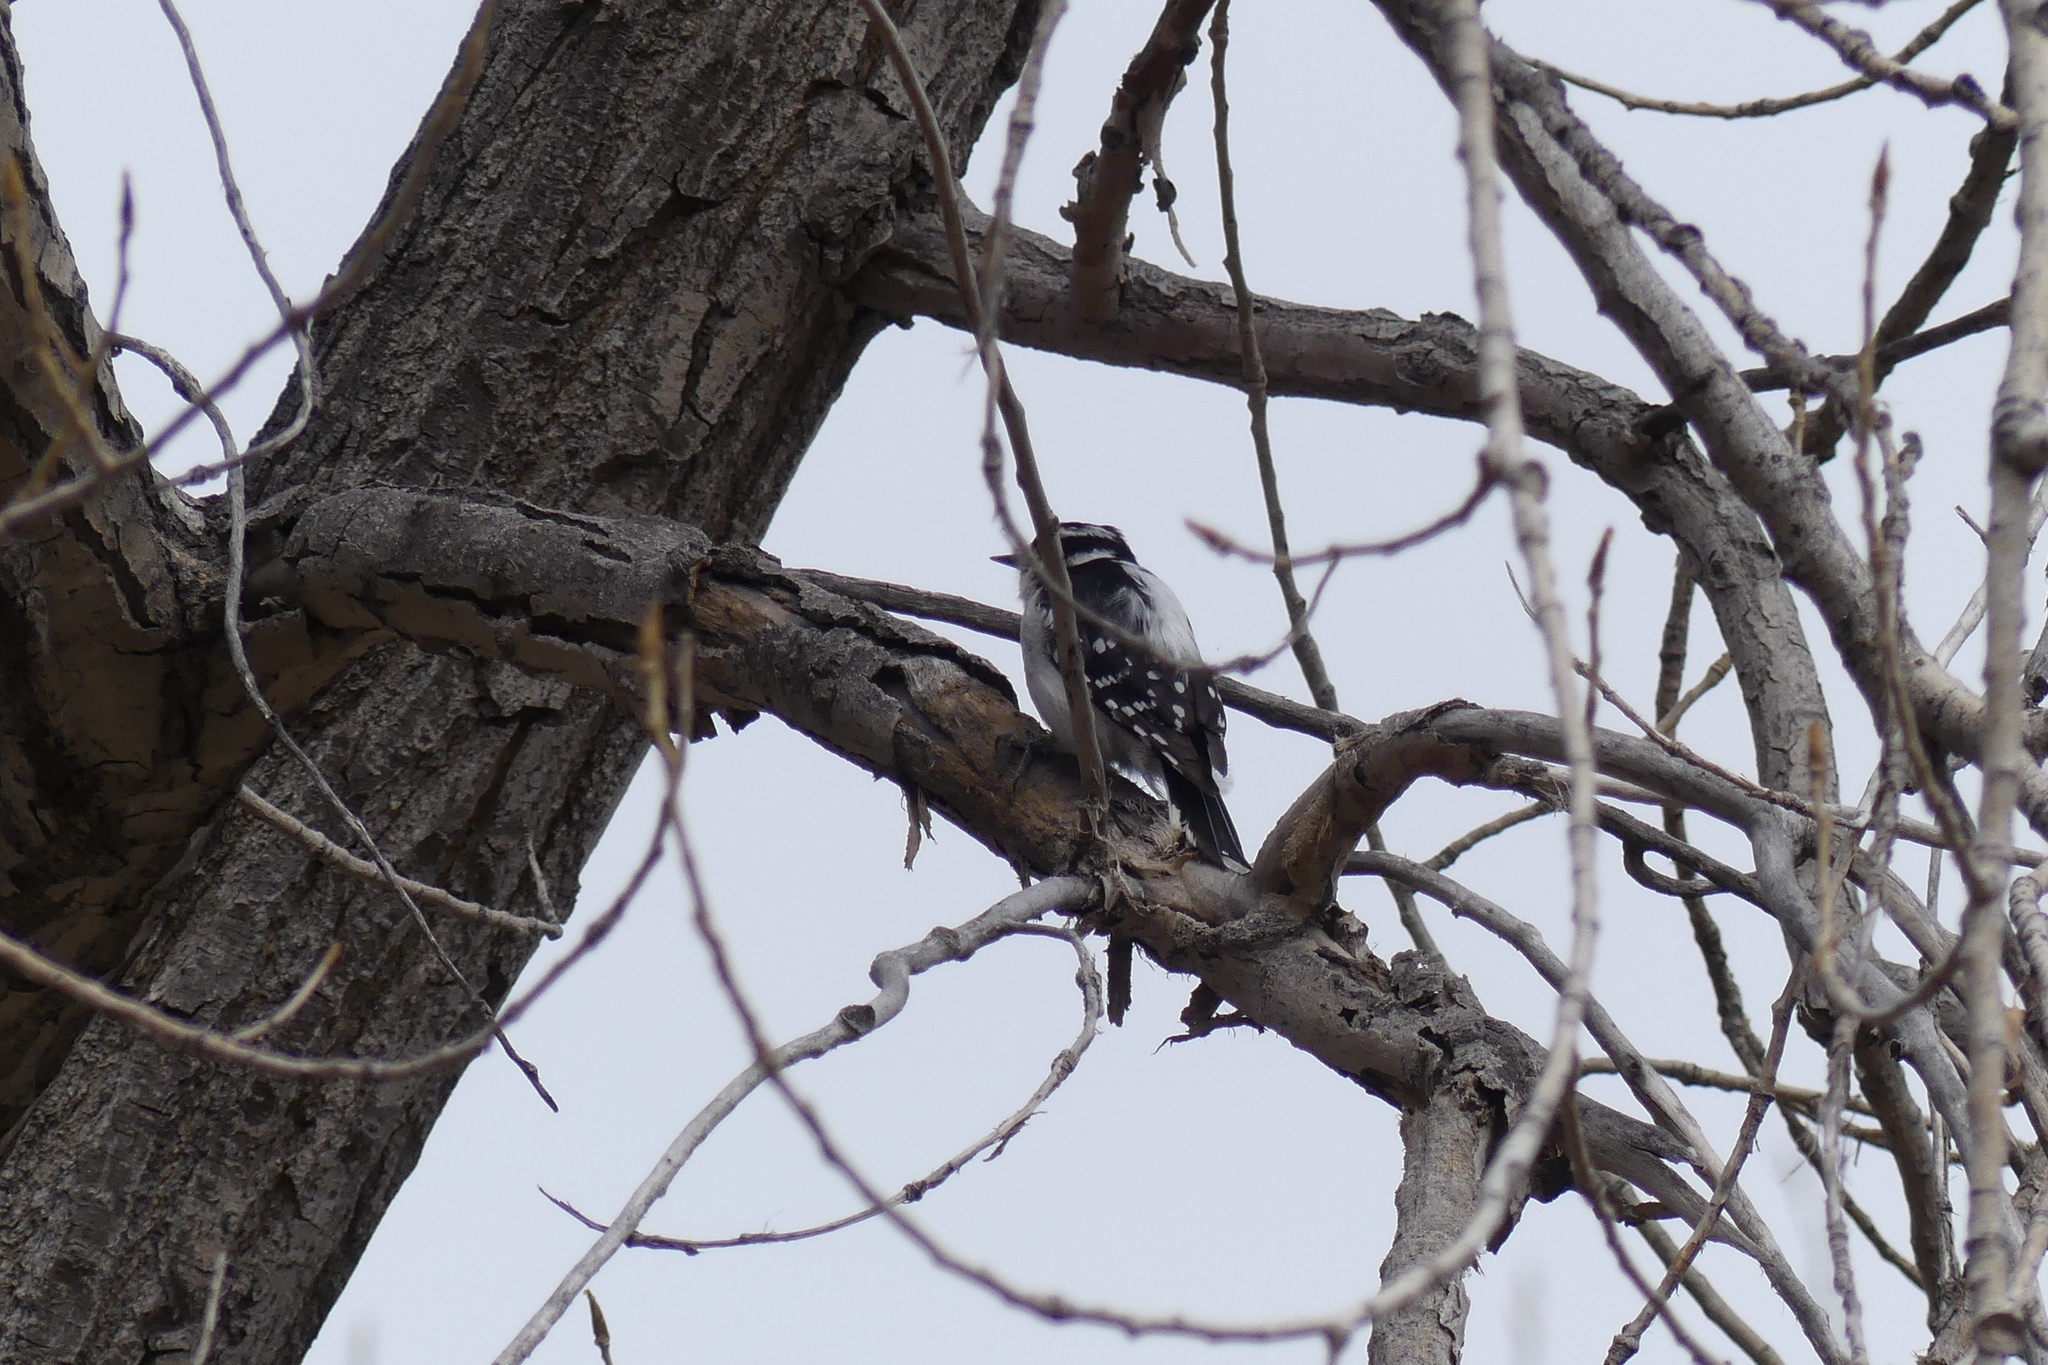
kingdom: Animalia
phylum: Chordata
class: Aves
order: Piciformes
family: Picidae
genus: Dryobates
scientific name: Dryobates pubescens
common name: Downy woodpecker
